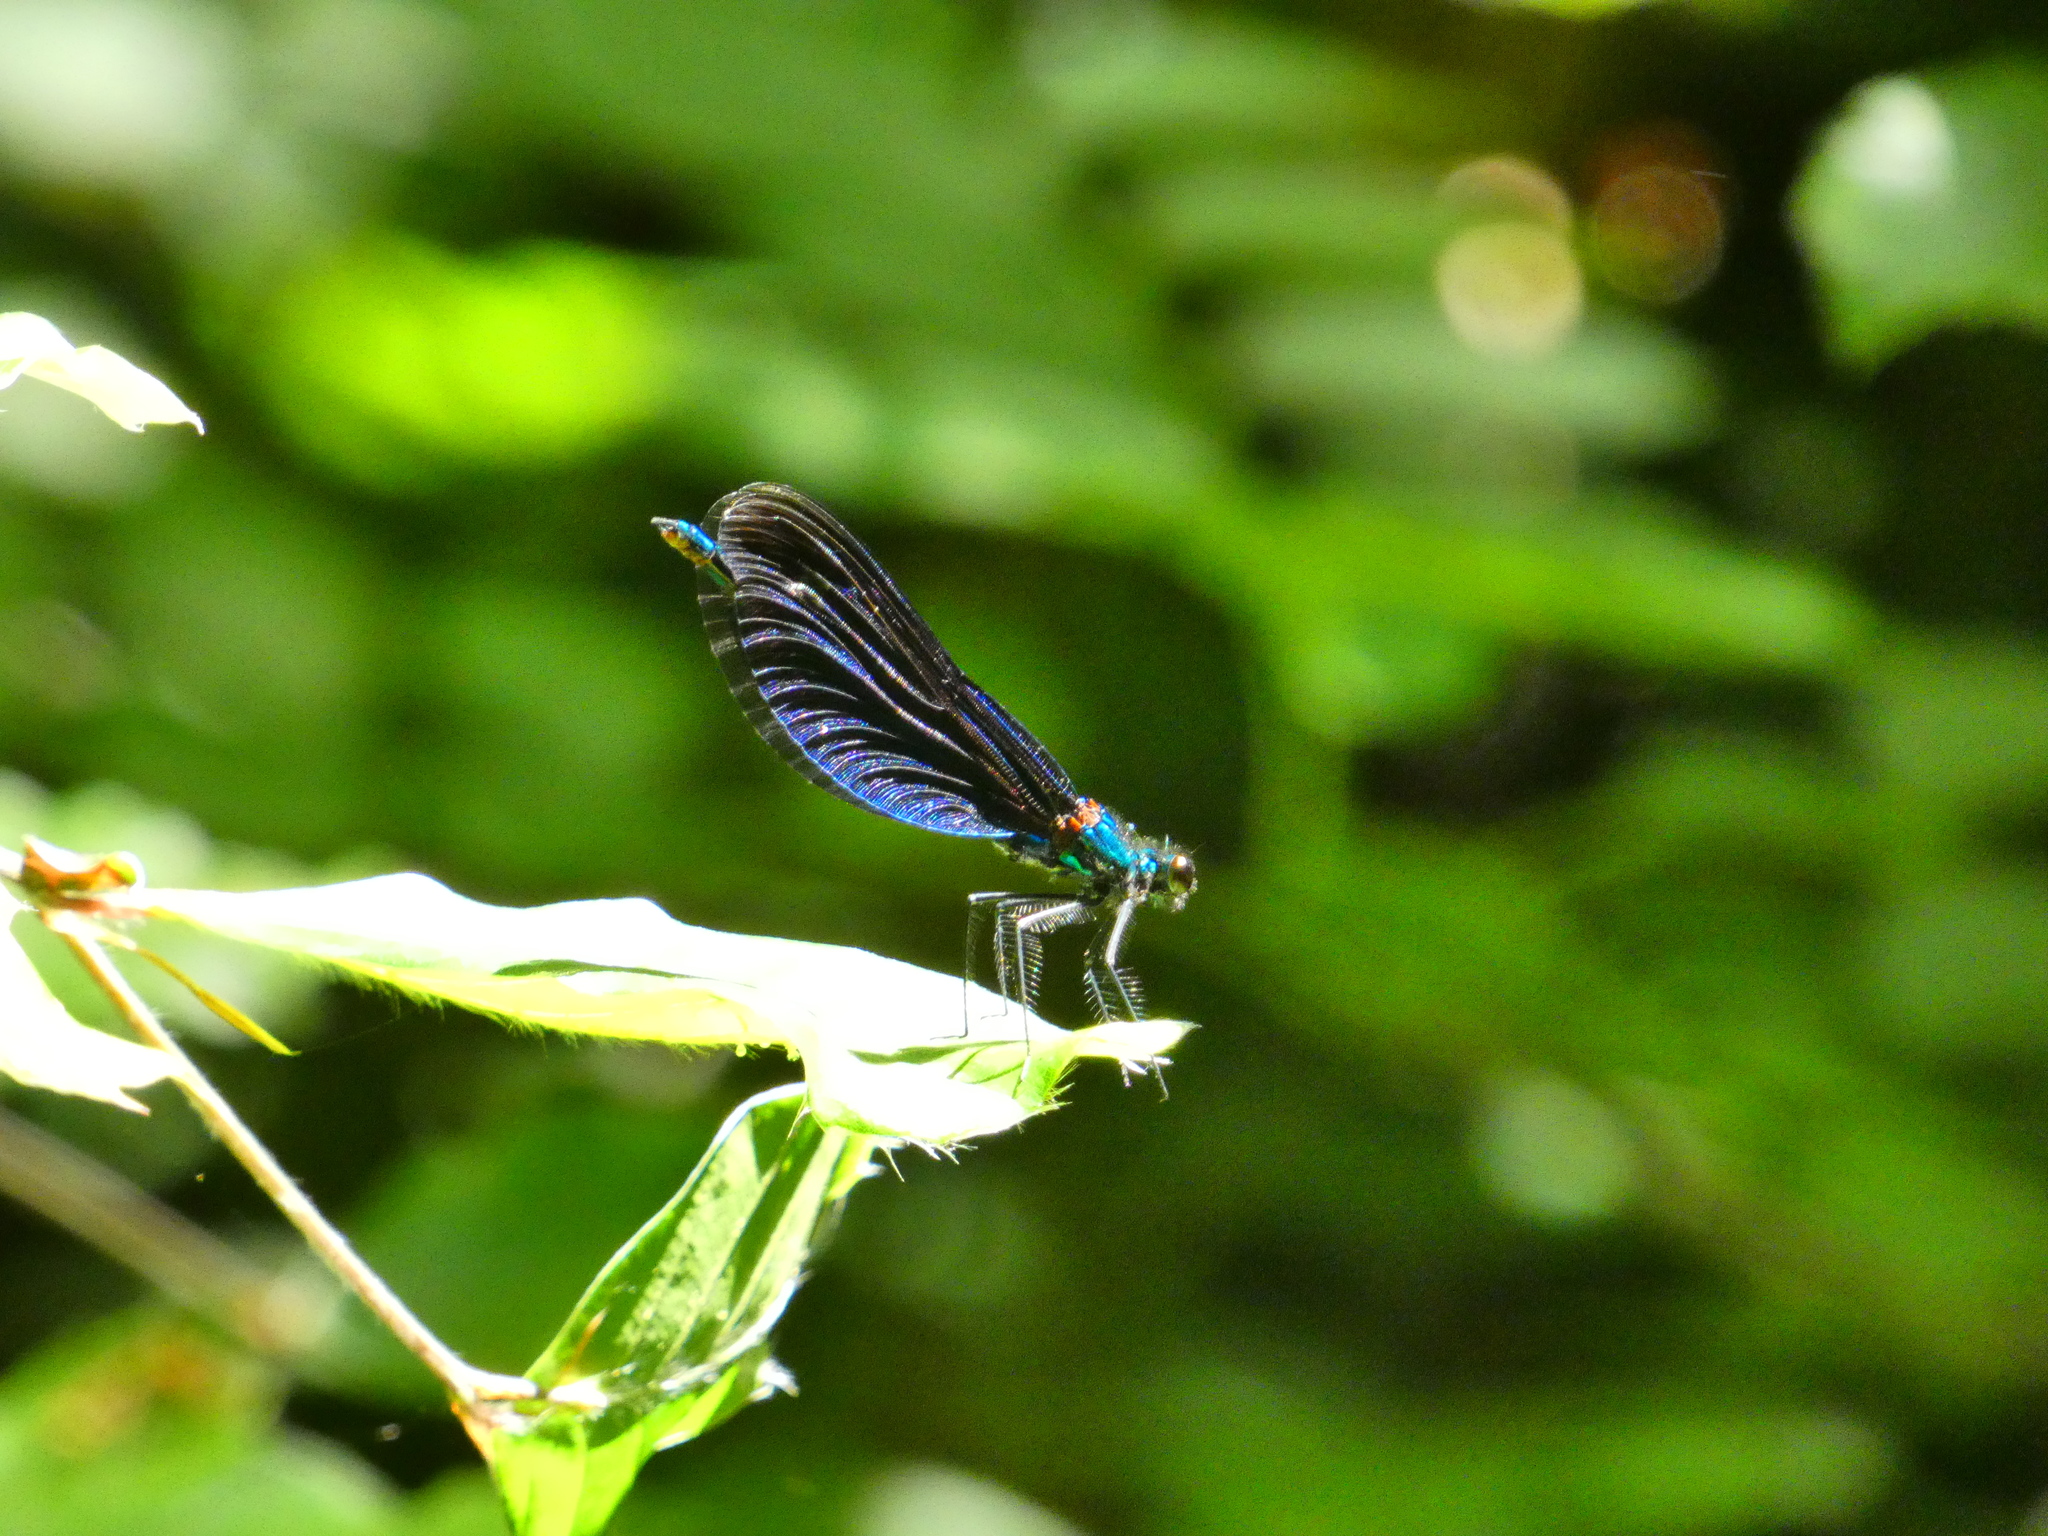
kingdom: Animalia
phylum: Arthropoda
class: Insecta
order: Odonata
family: Calopterygidae
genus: Calopteryx
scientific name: Calopteryx virgo
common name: Beautiful demoiselle
